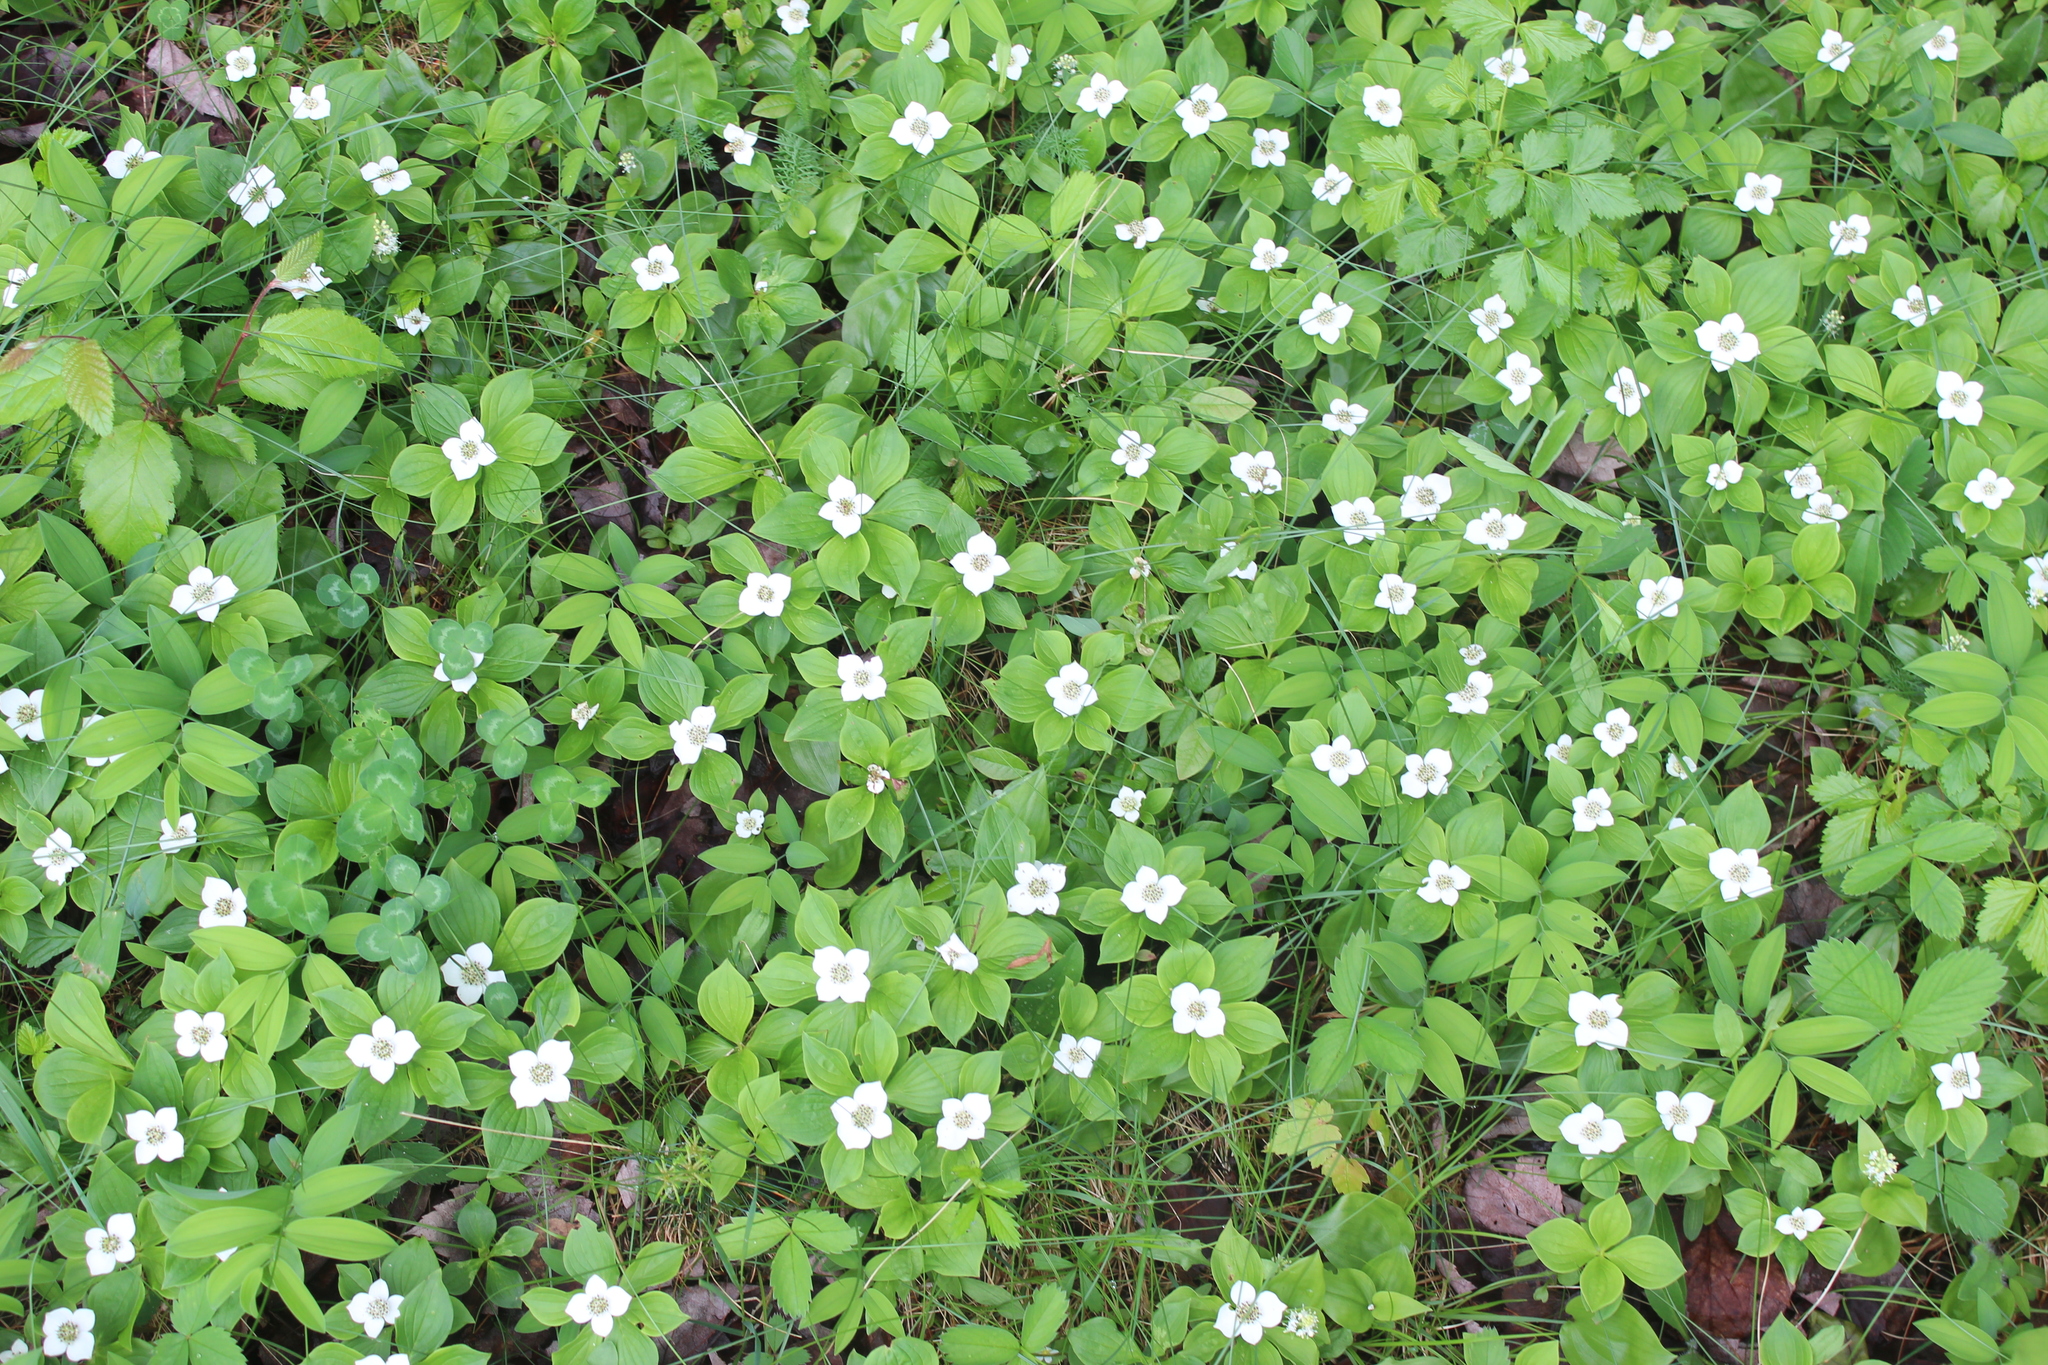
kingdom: Plantae
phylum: Tracheophyta
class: Magnoliopsida
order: Cornales
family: Cornaceae
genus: Cornus
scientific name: Cornus canadensis
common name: Creeping dogwood
